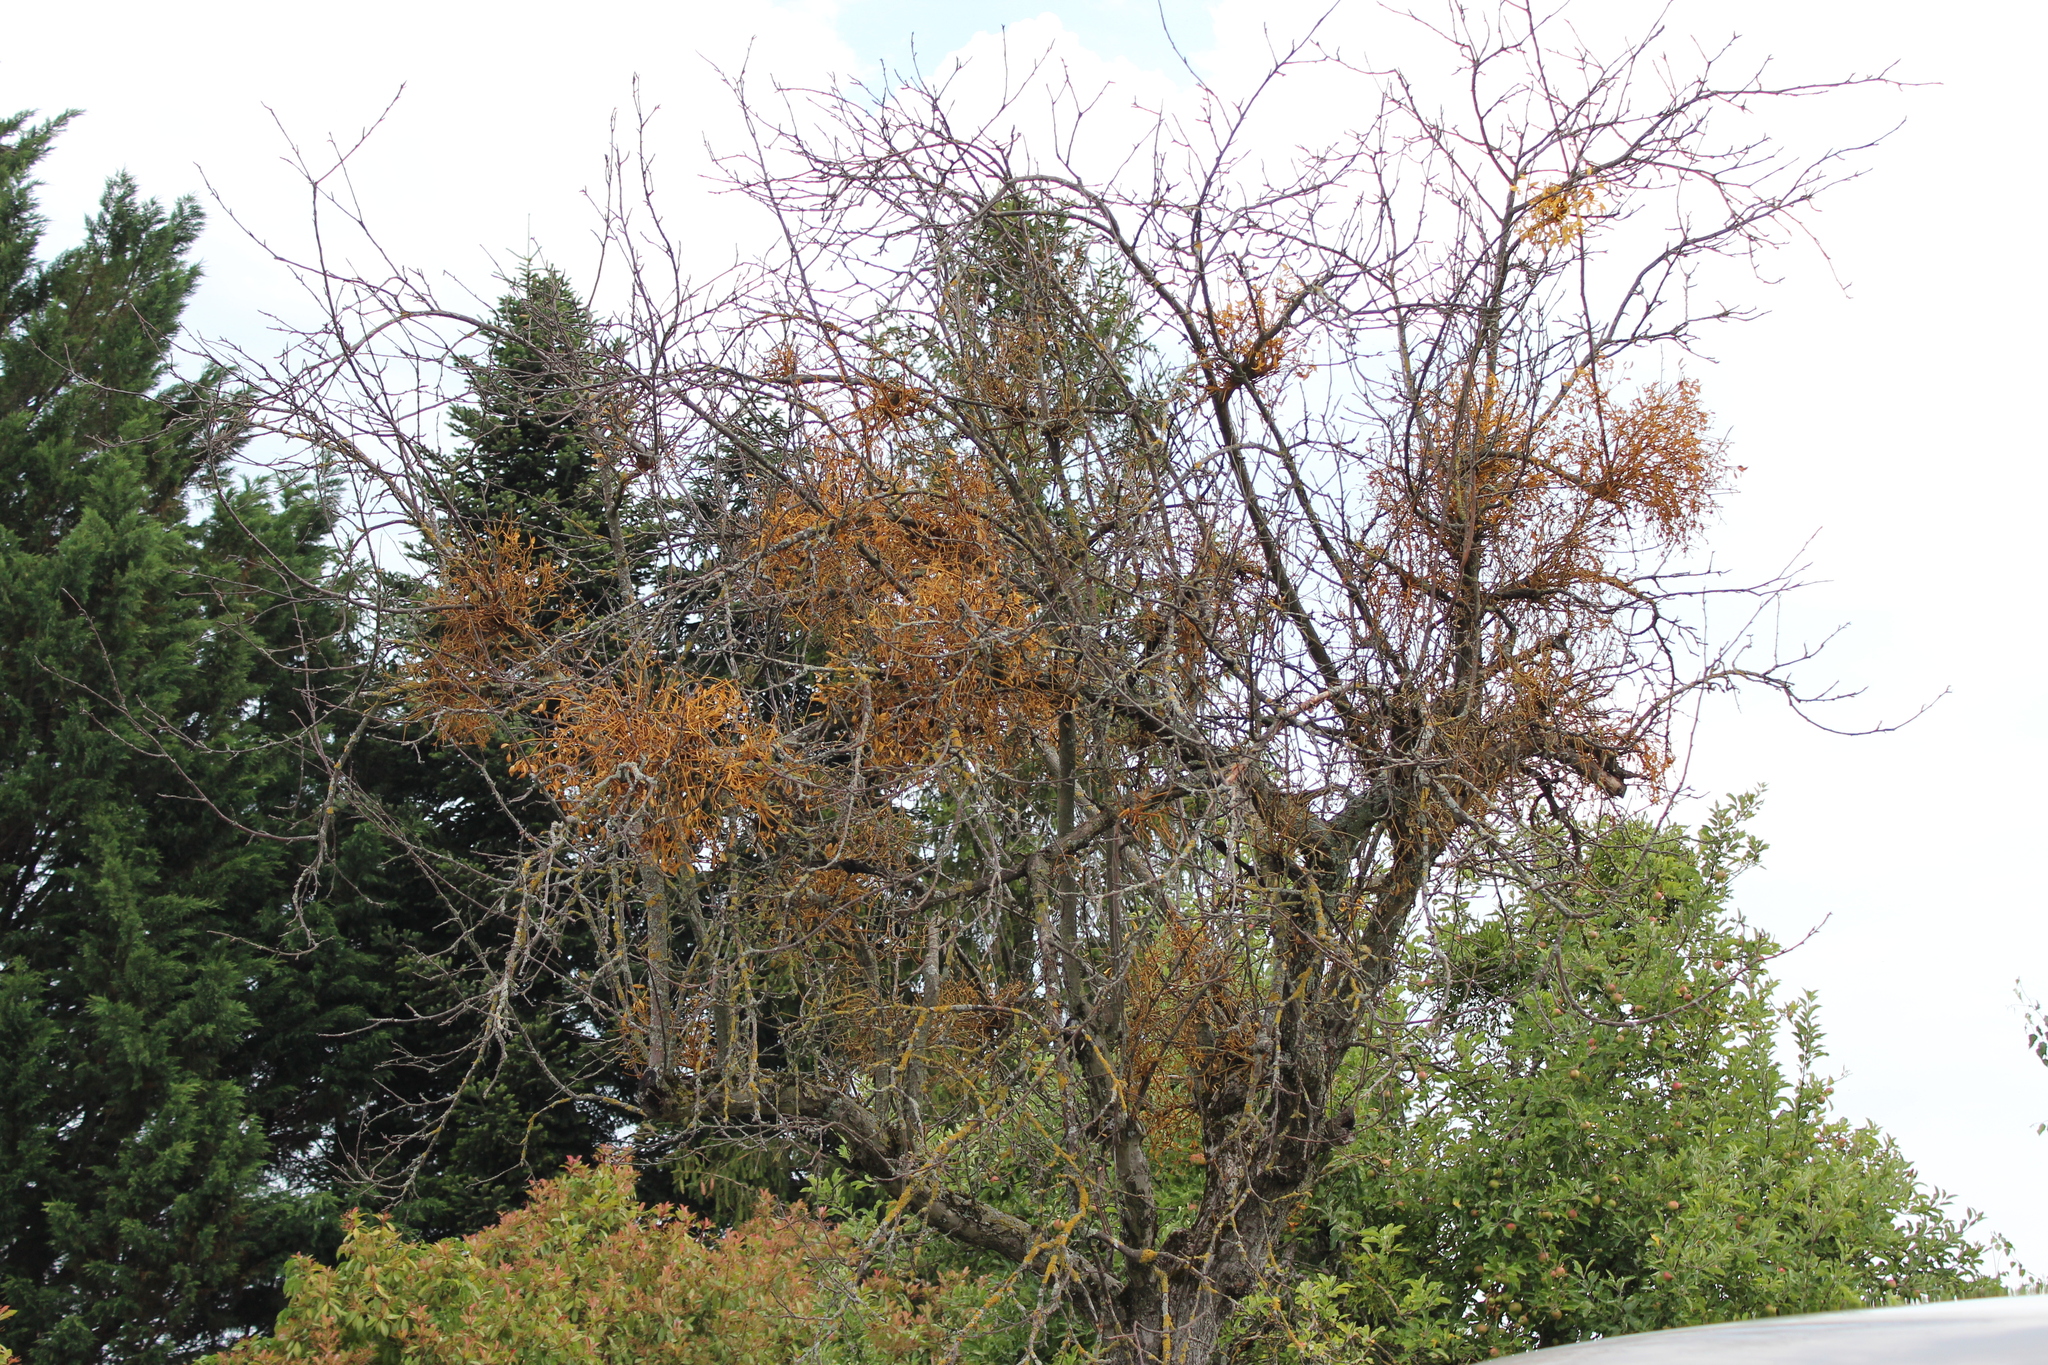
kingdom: Plantae
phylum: Tracheophyta
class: Magnoliopsida
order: Santalales
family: Viscaceae
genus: Viscum
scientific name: Viscum album
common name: Mistletoe
